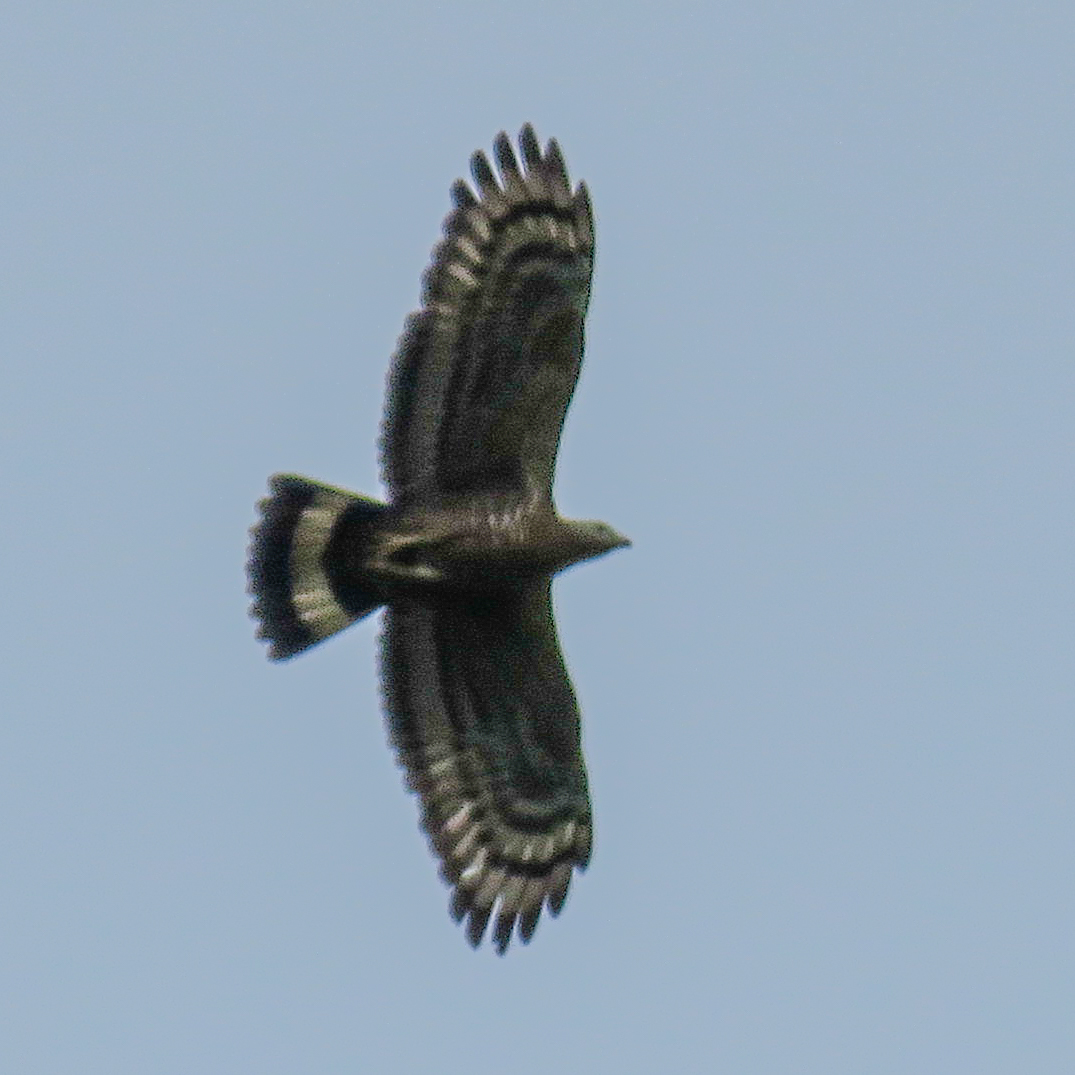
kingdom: Animalia
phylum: Chordata
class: Aves
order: Accipitriformes
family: Accipitridae
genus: Pernis
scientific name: Pernis ptilorhynchus
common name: Crested honey buzzard
